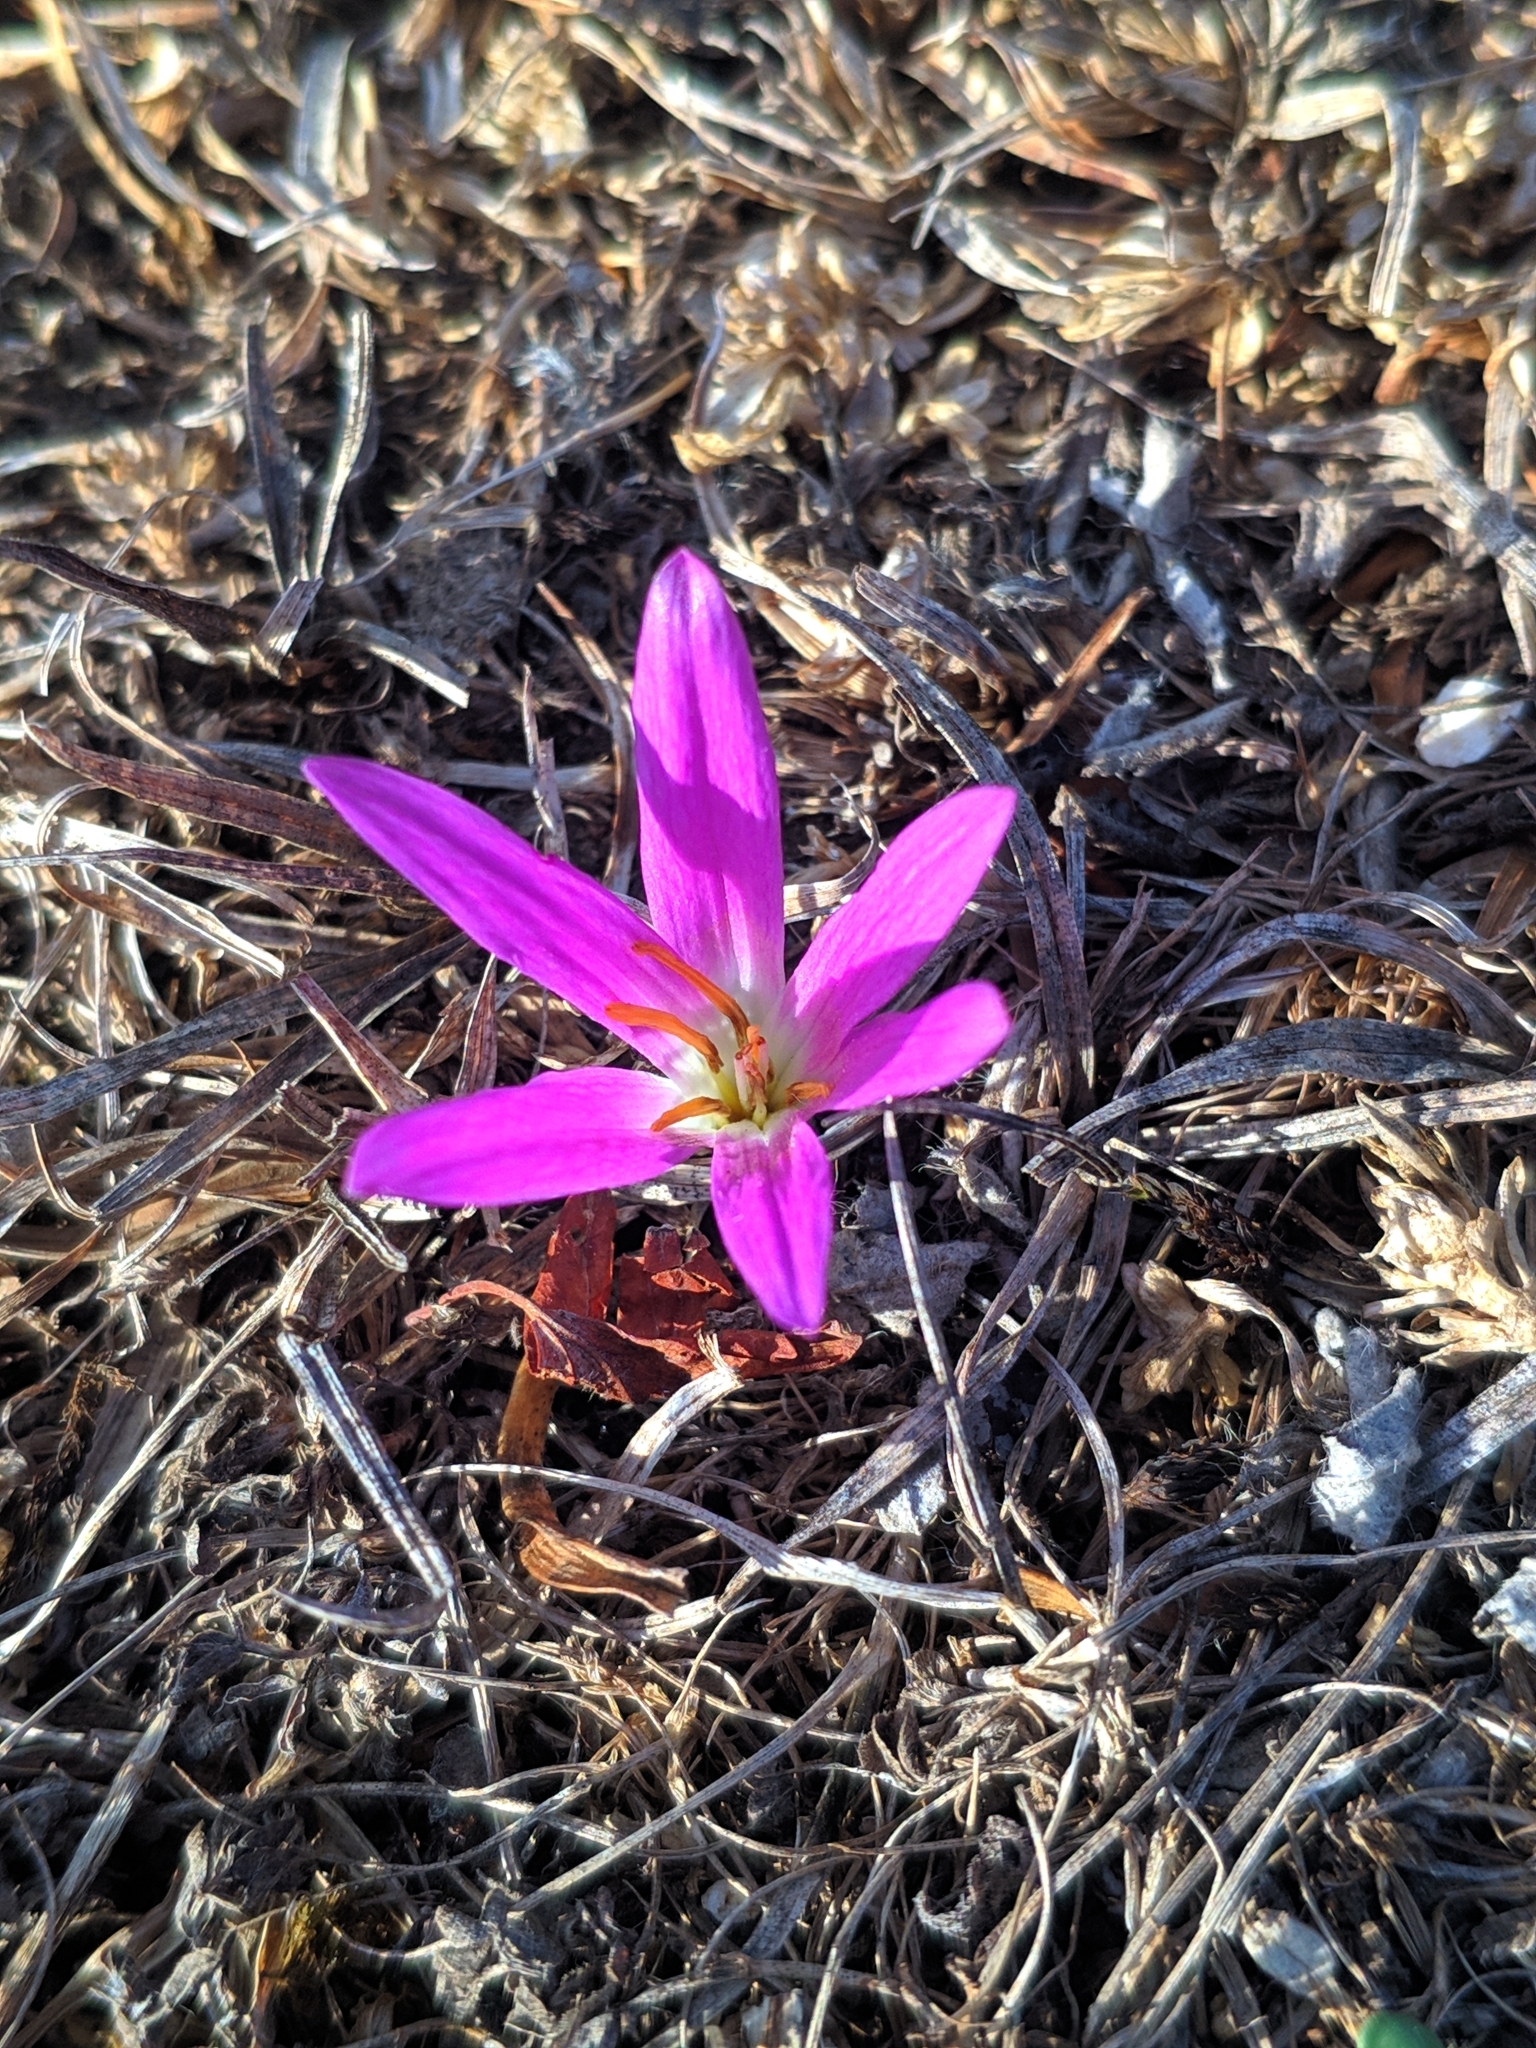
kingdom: Plantae
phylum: Tracheophyta
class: Liliopsida
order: Liliales
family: Colchicaceae
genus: Colchicum
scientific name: Colchicum montanum
